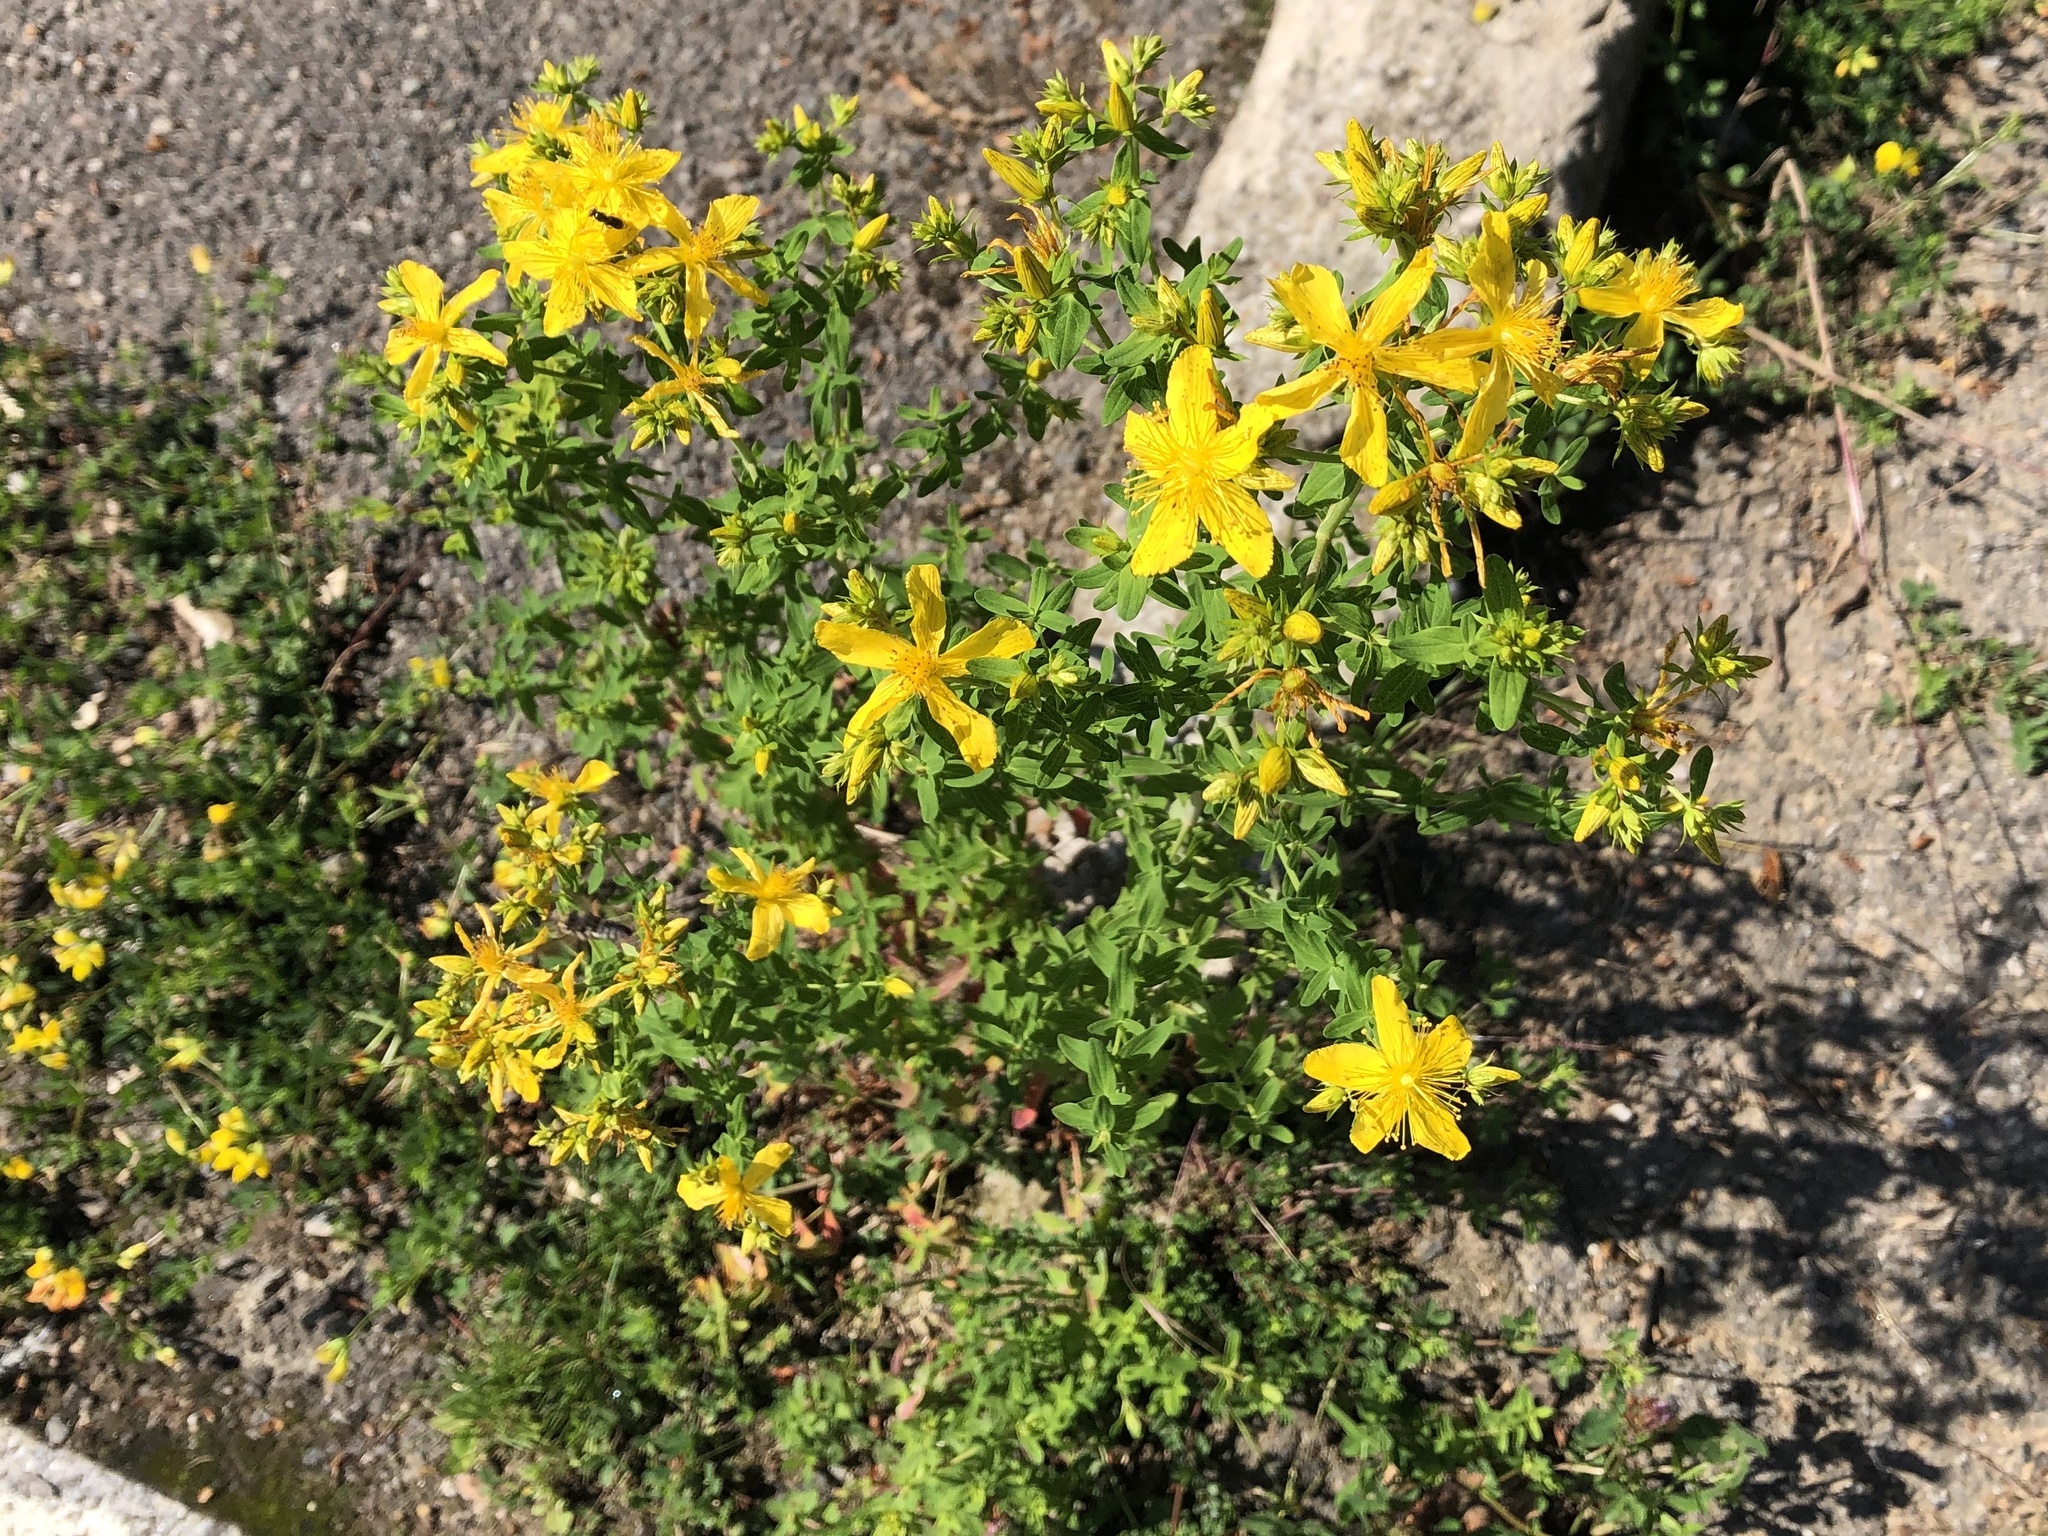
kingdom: Plantae
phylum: Tracheophyta
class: Magnoliopsida
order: Malpighiales
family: Hypericaceae
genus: Hypericum
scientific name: Hypericum perforatum
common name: Common st. johnswort
